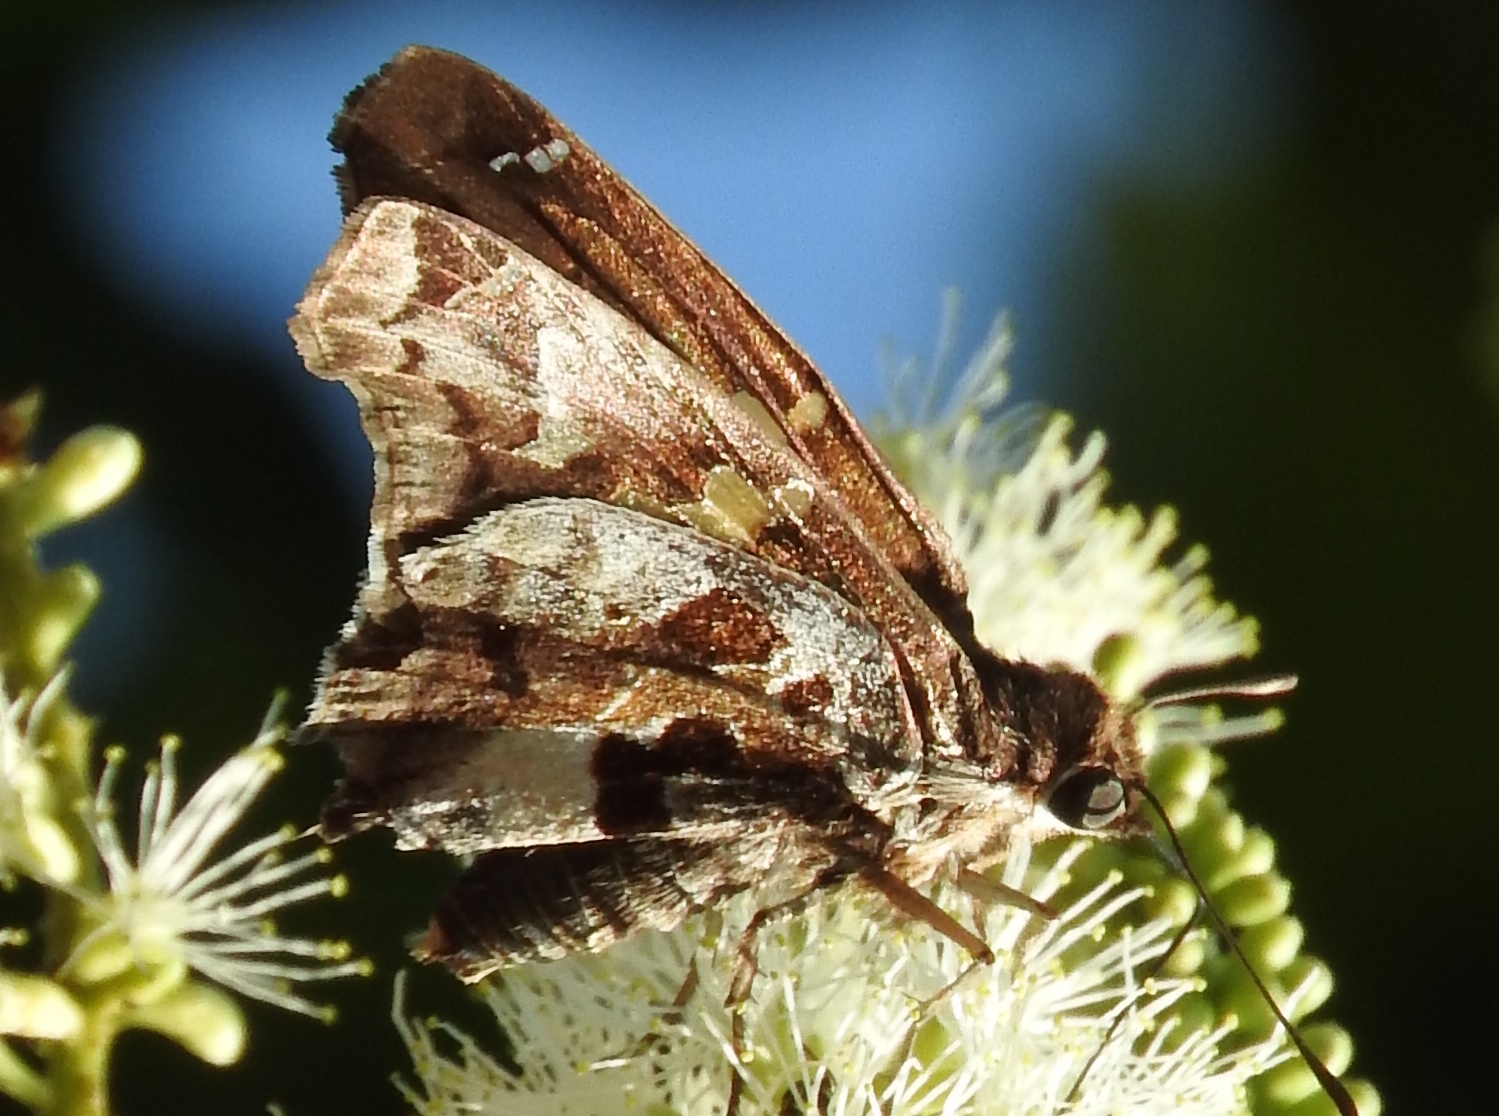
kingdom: Animalia
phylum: Arthropoda
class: Insecta
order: Lepidoptera
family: Hesperiidae
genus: Chioides
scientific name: Chioides zilpa
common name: Zilpa longtail
